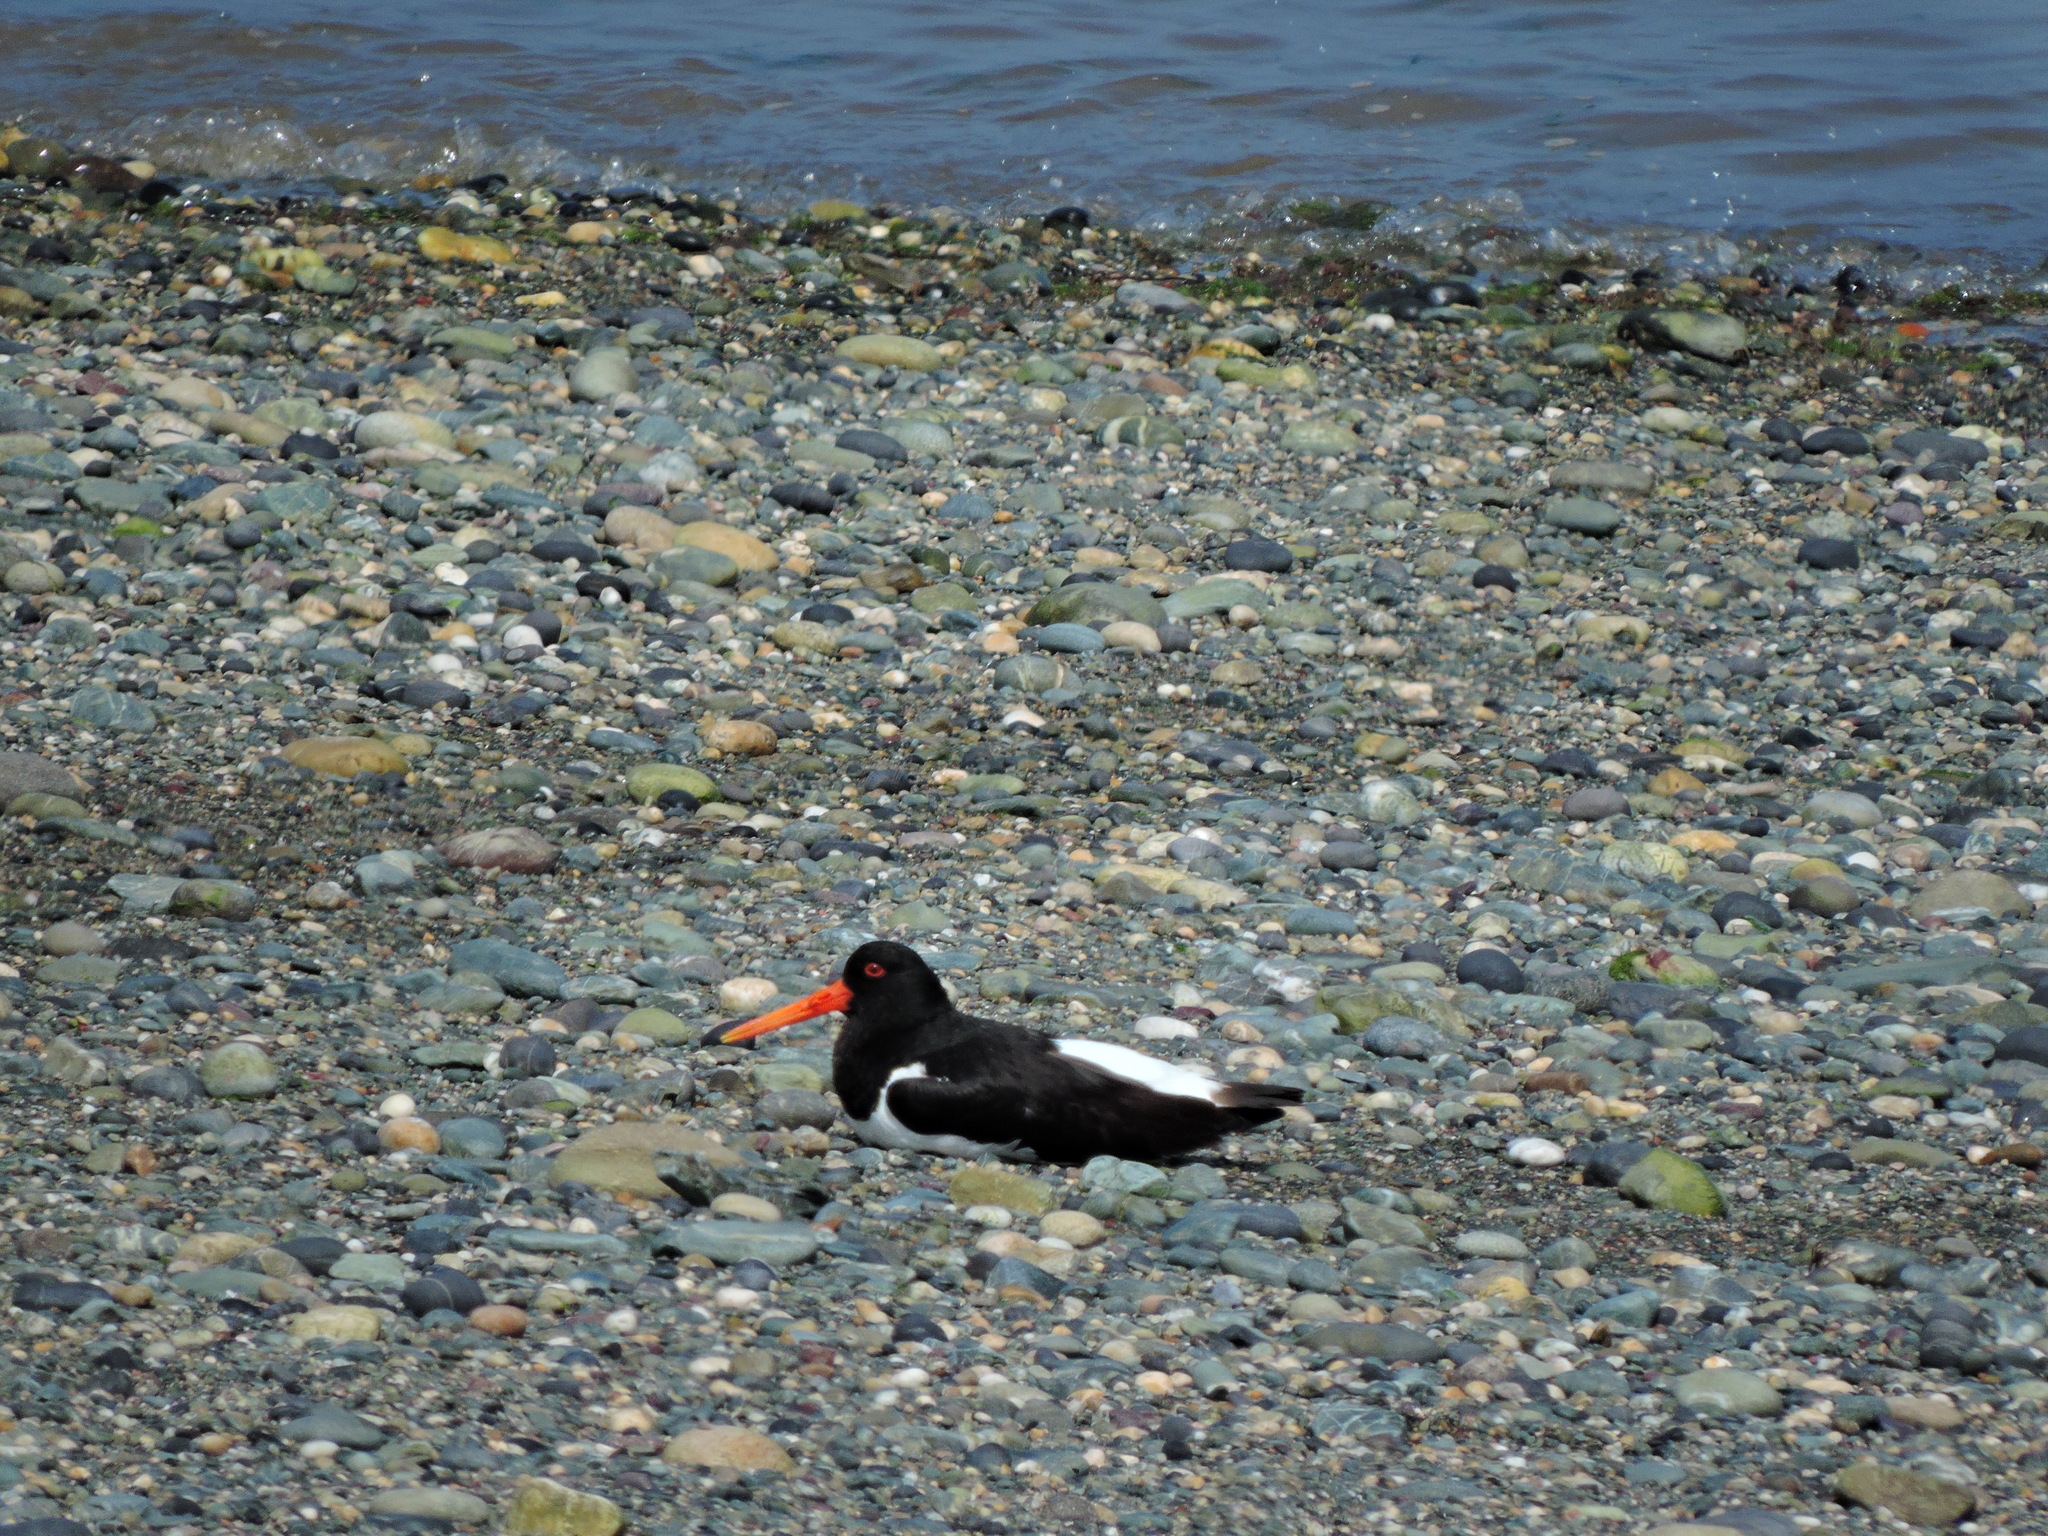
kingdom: Animalia
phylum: Chordata
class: Aves
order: Charadriiformes
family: Haematopodidae
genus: Haematopus
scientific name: Haematopus ostralegus
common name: Eurasian oystercatcher
